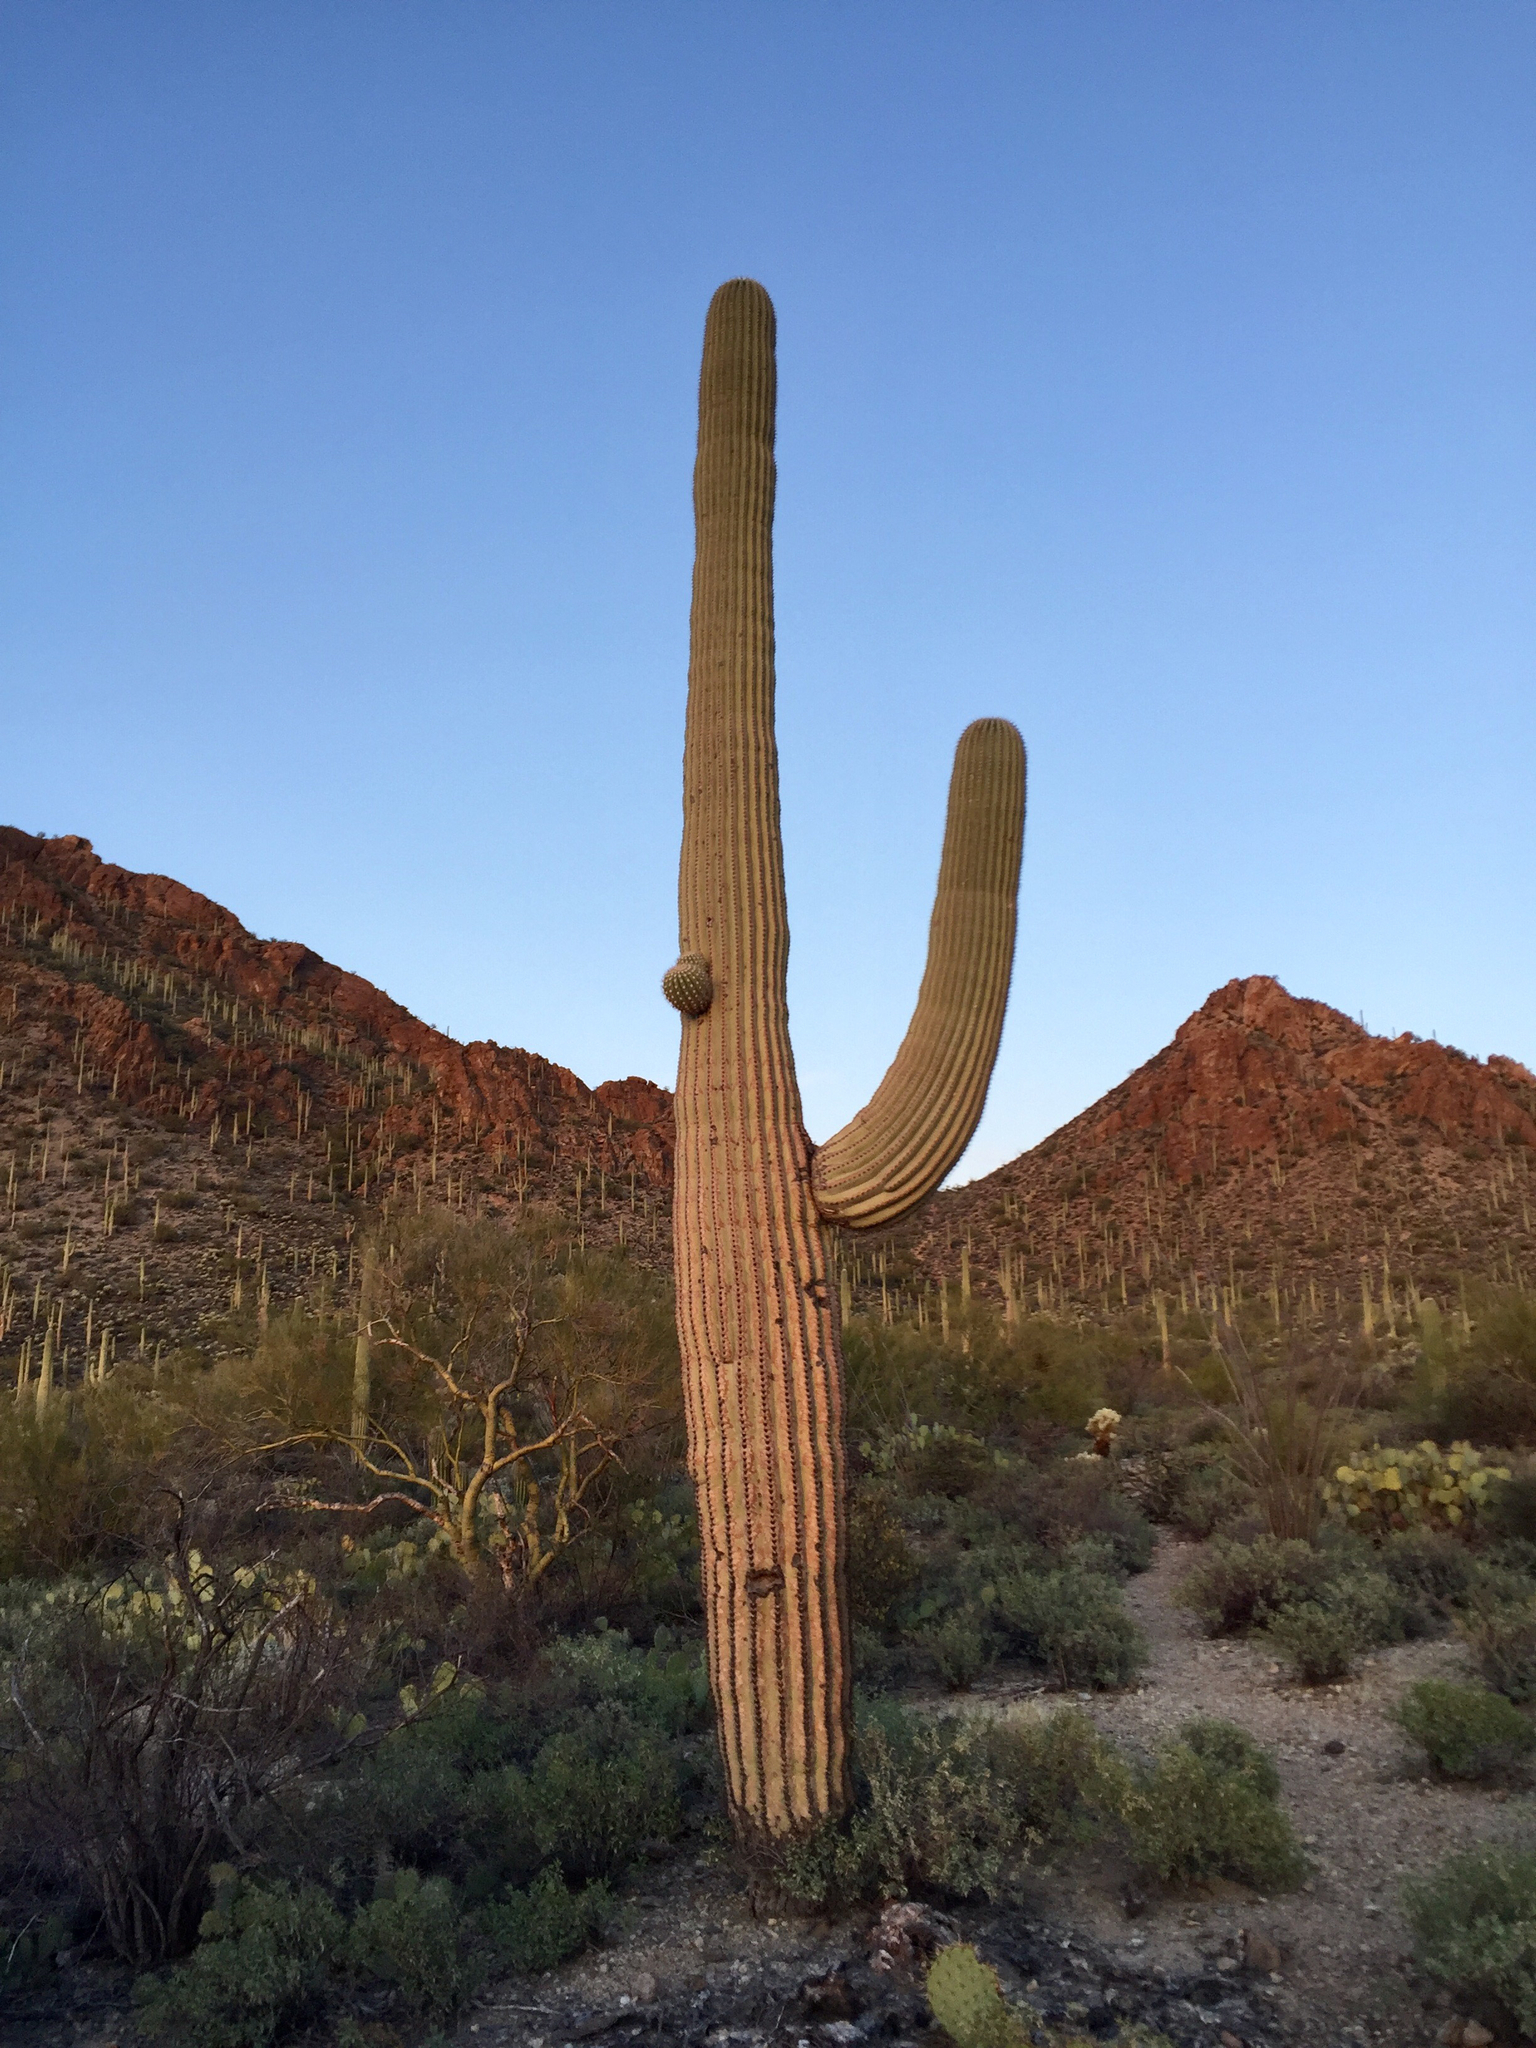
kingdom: Plantae
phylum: Tracheophyta
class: Magnoliopsida
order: Caryophyllales
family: Cactaceae
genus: Carnegiea
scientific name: Carnegiea gigantea
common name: Saguaro
